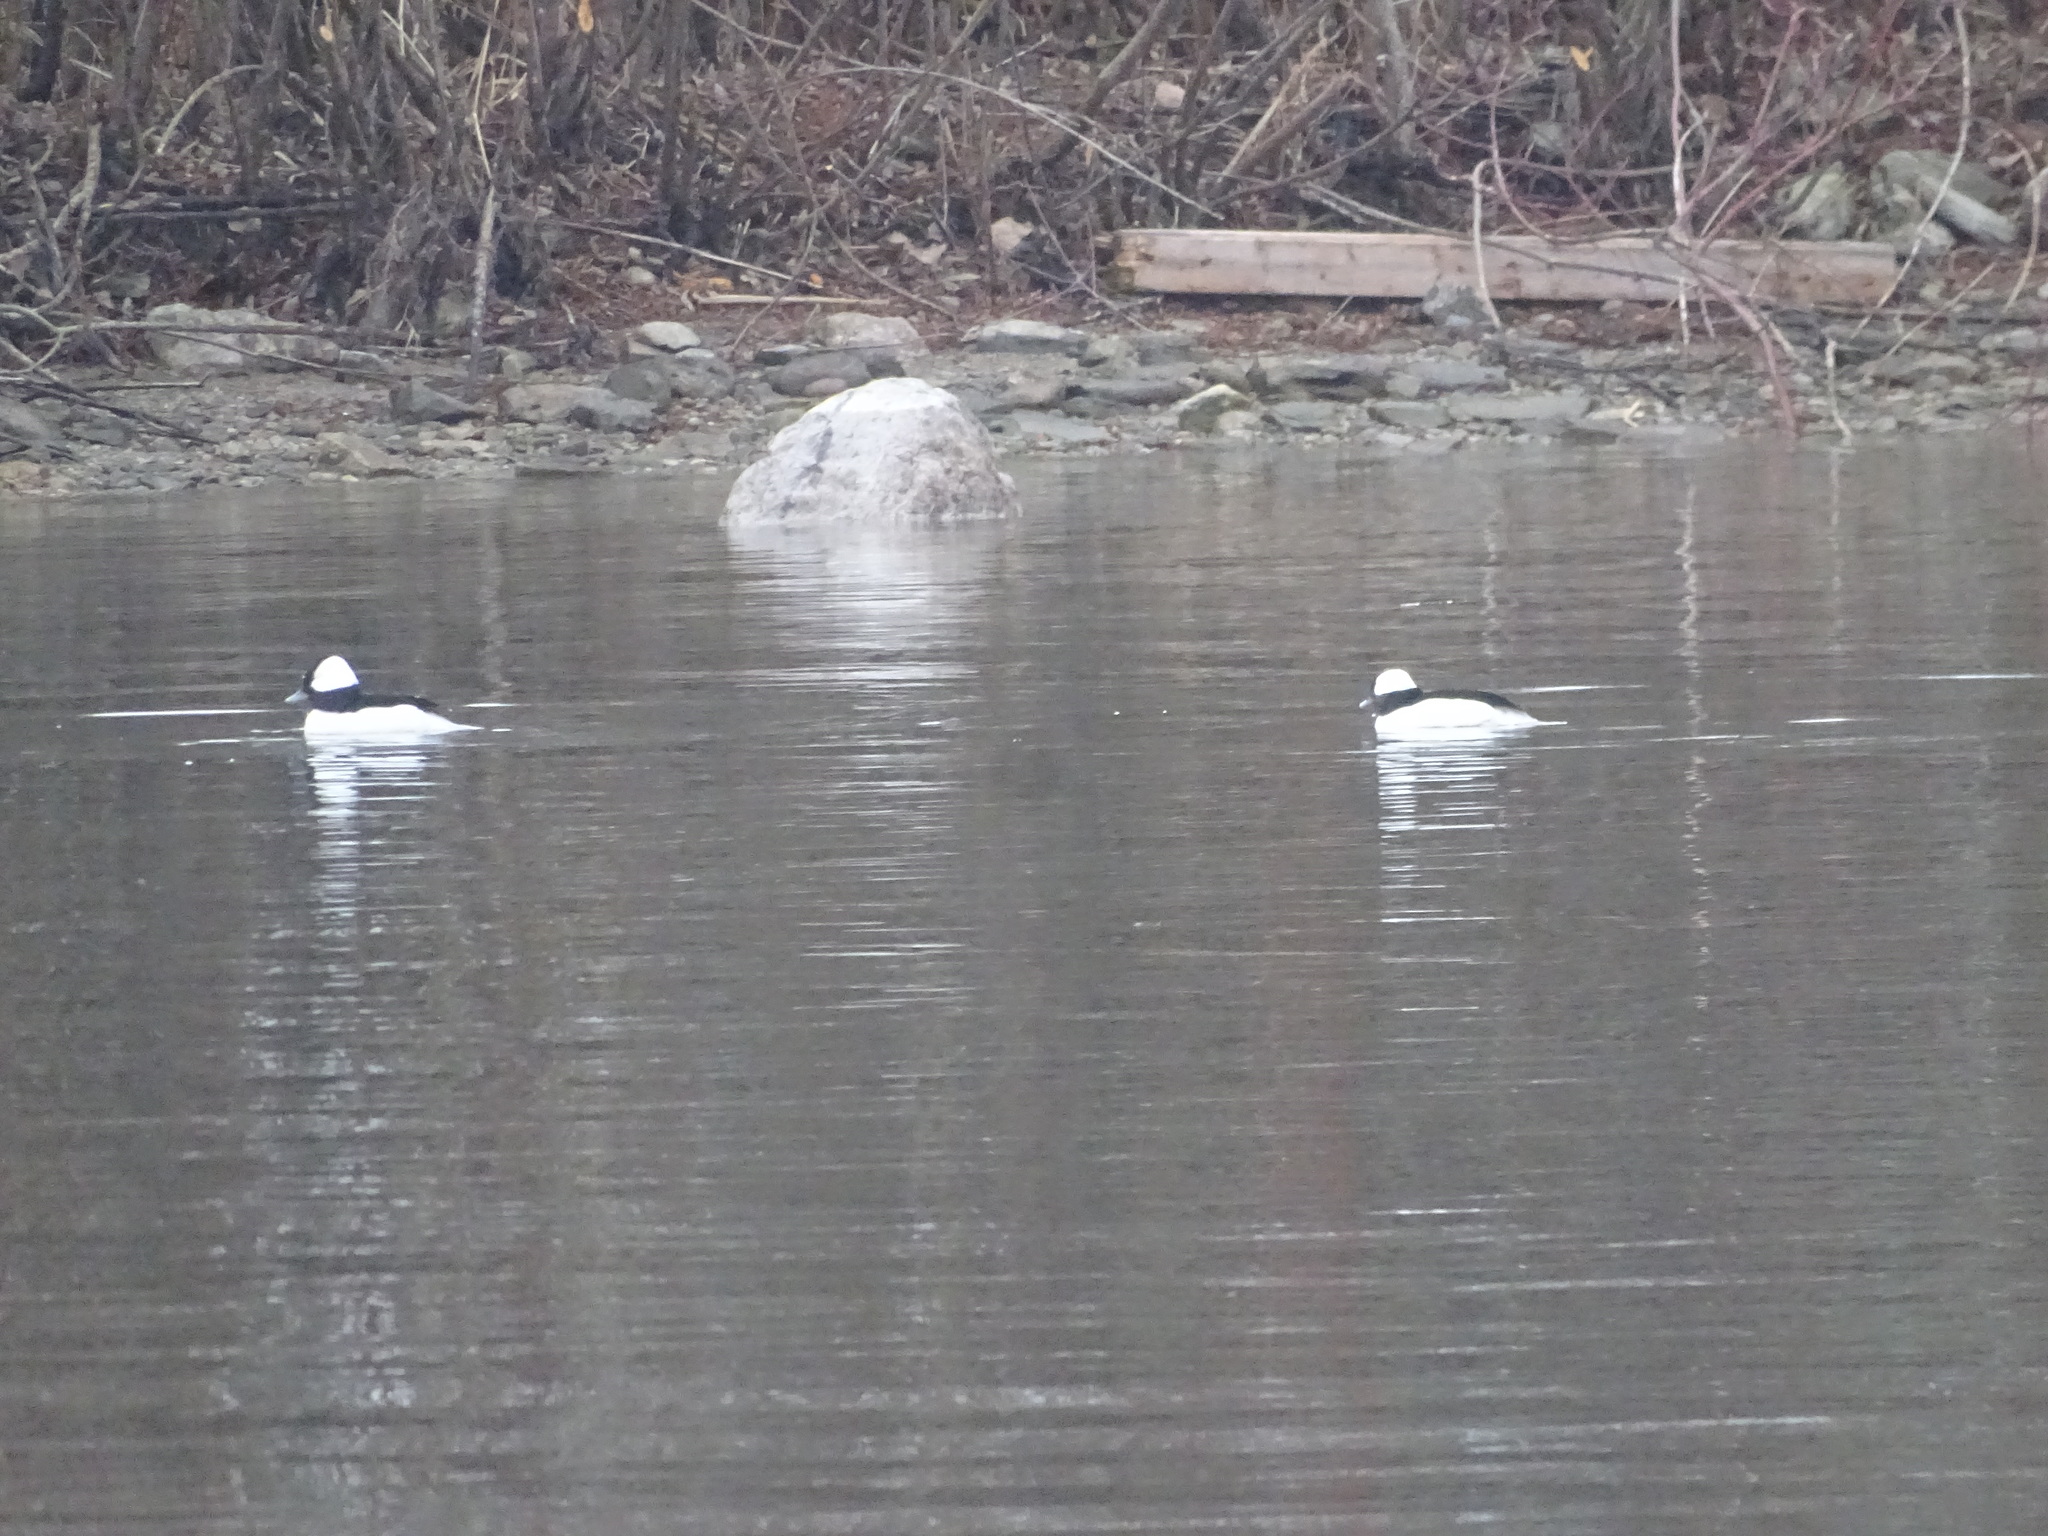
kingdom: Animalia
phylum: Chordata
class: Aves
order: Anseriformes
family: Anatidae
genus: Bucephala
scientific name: Bucephala albeola
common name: Bufflehead
